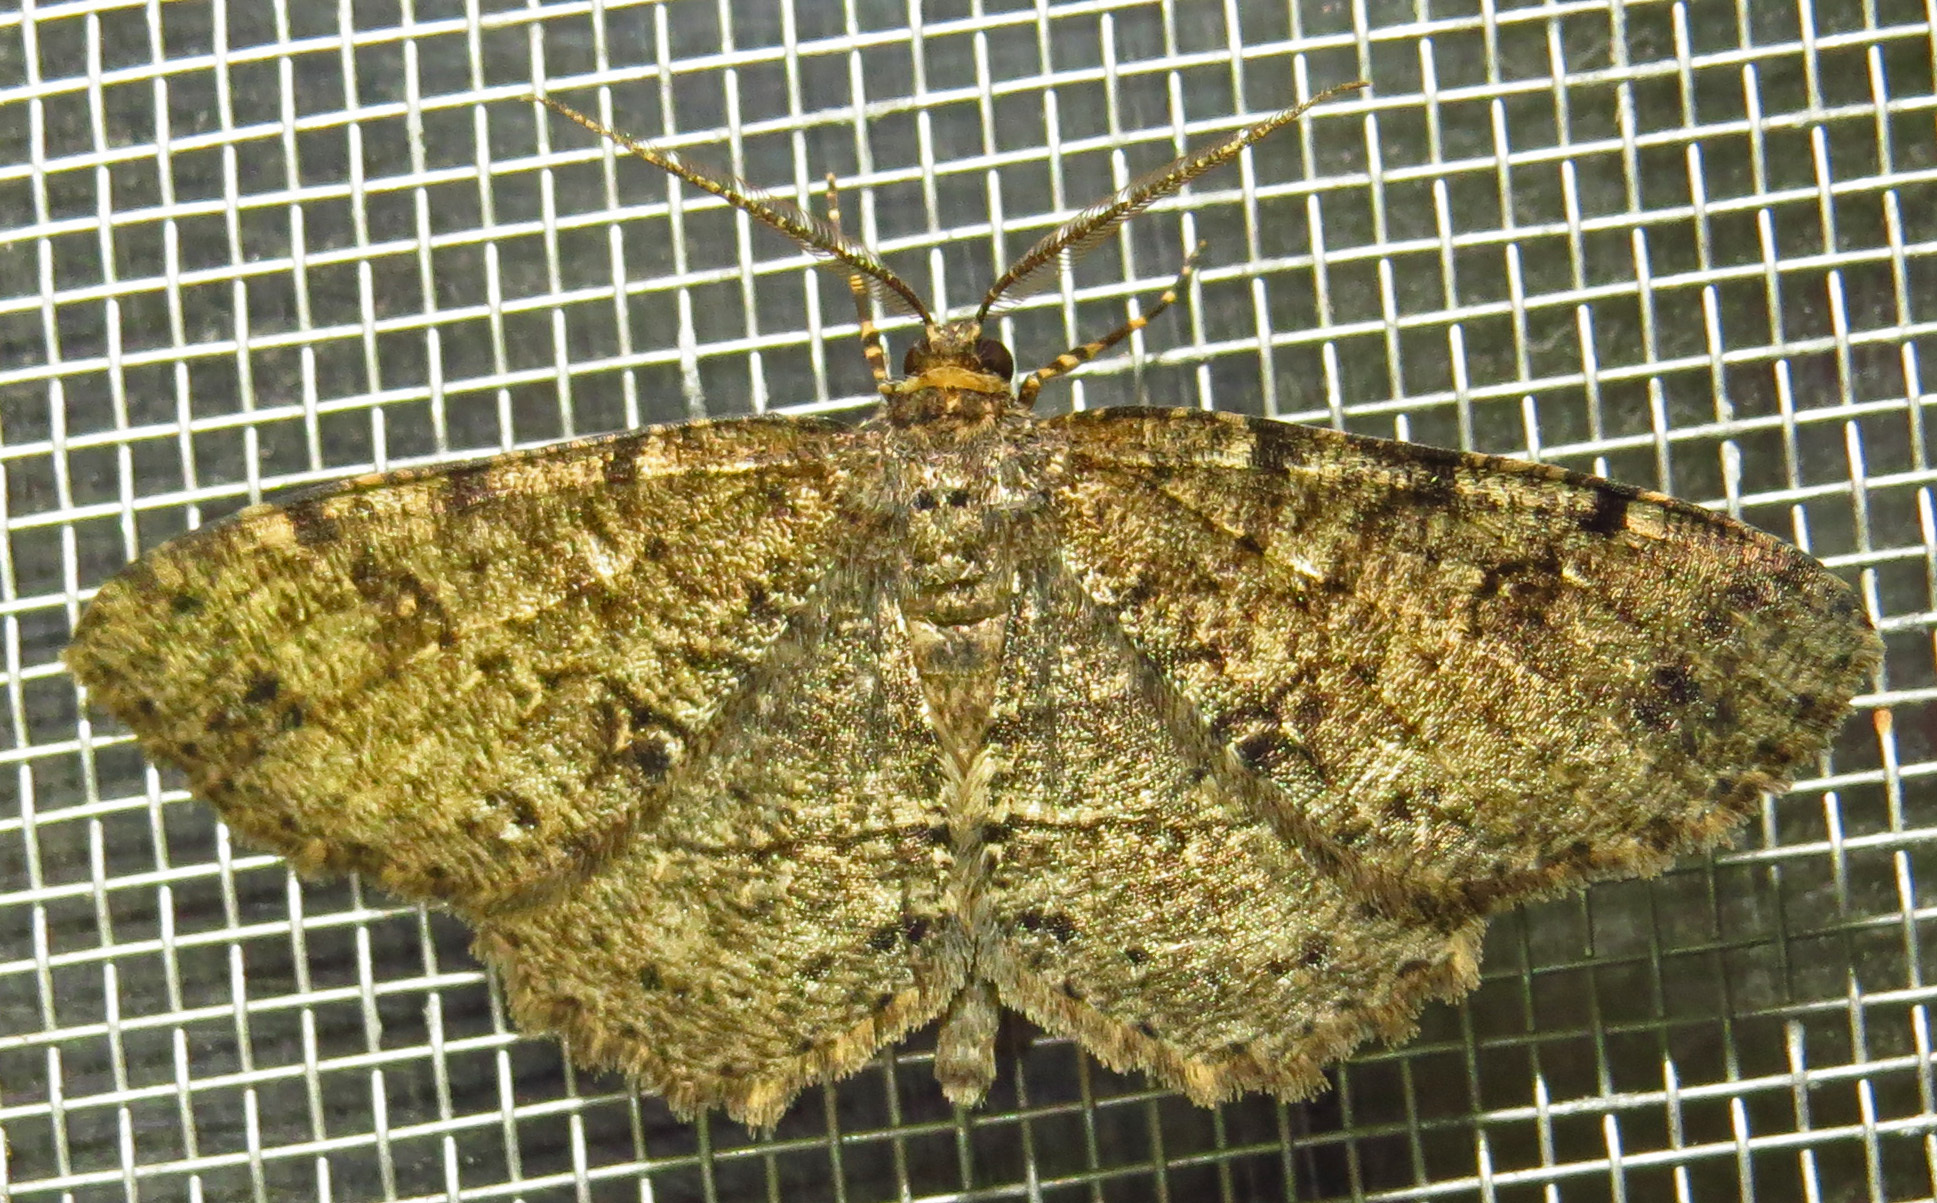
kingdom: Animalia
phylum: Arthropoda
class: Insecta
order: Lepidoptera
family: Geometridae
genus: Melanolophia
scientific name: Melanolophia canadaria
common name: Canadian melanolophia
